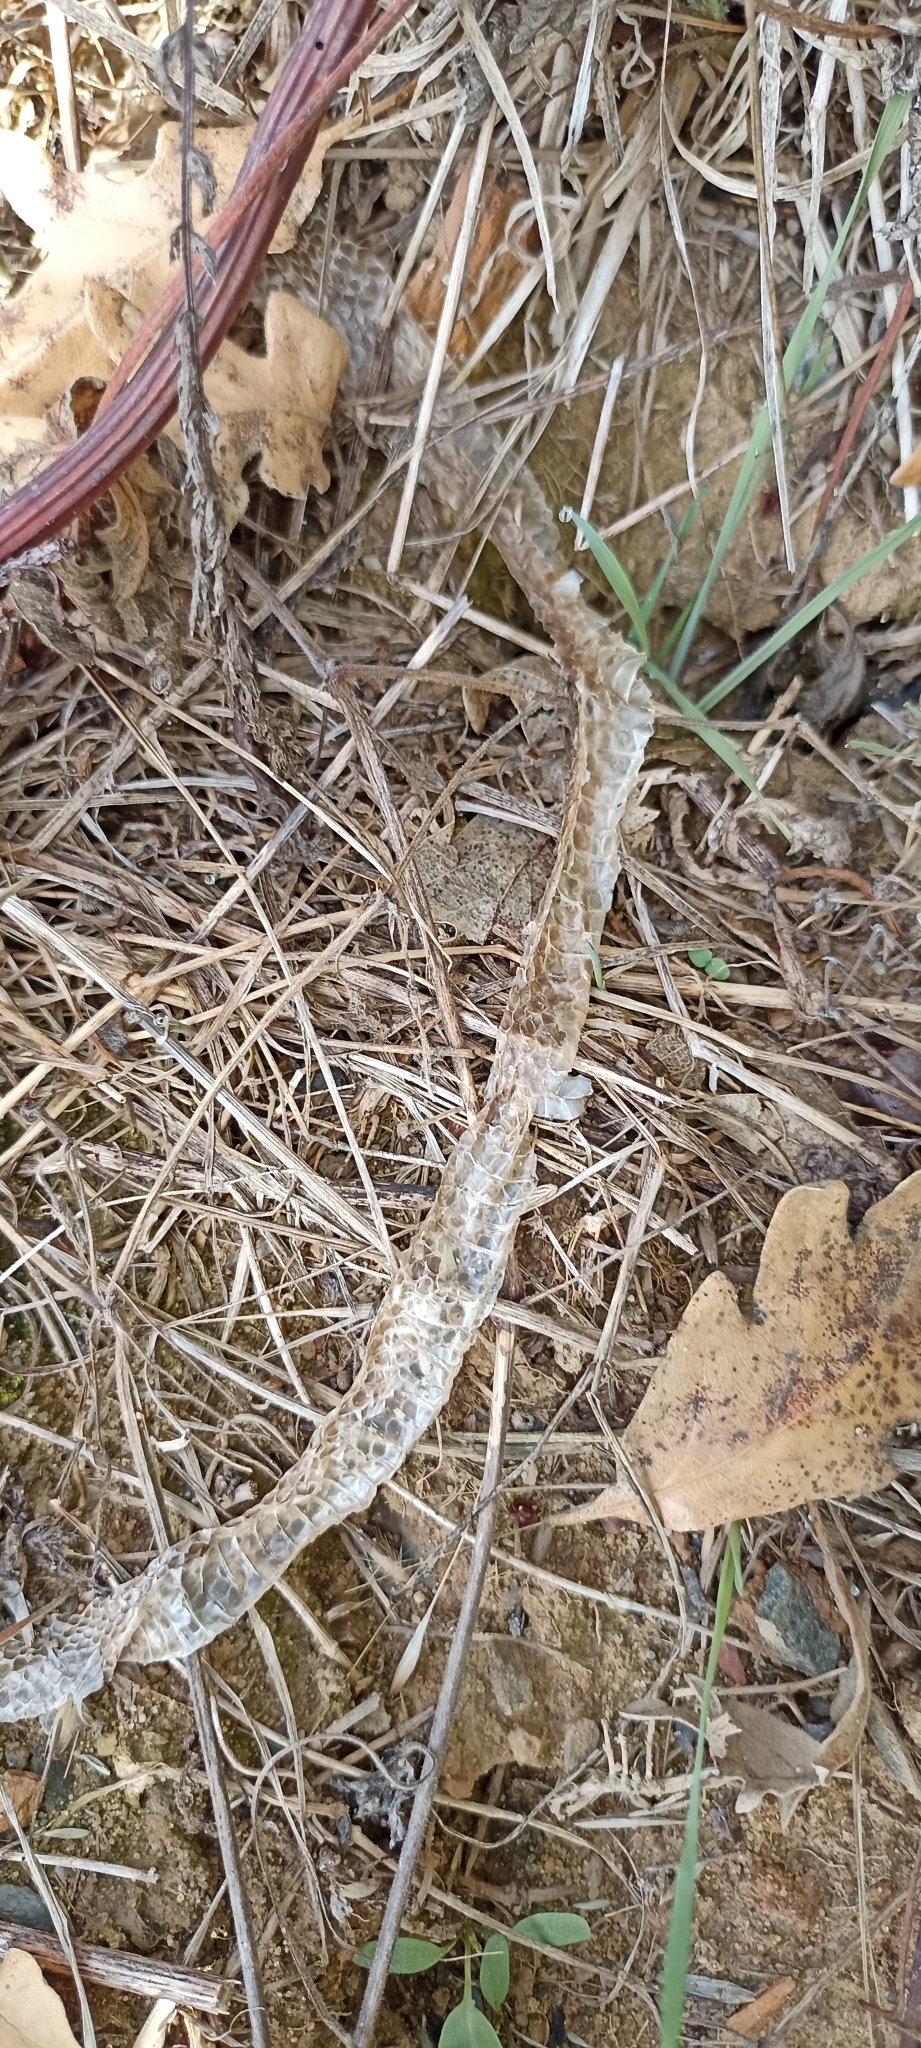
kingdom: Animalia
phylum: Chordata
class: Squamata
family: Colubridae
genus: Coronella
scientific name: Coronella austriaca
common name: Smooth snake
